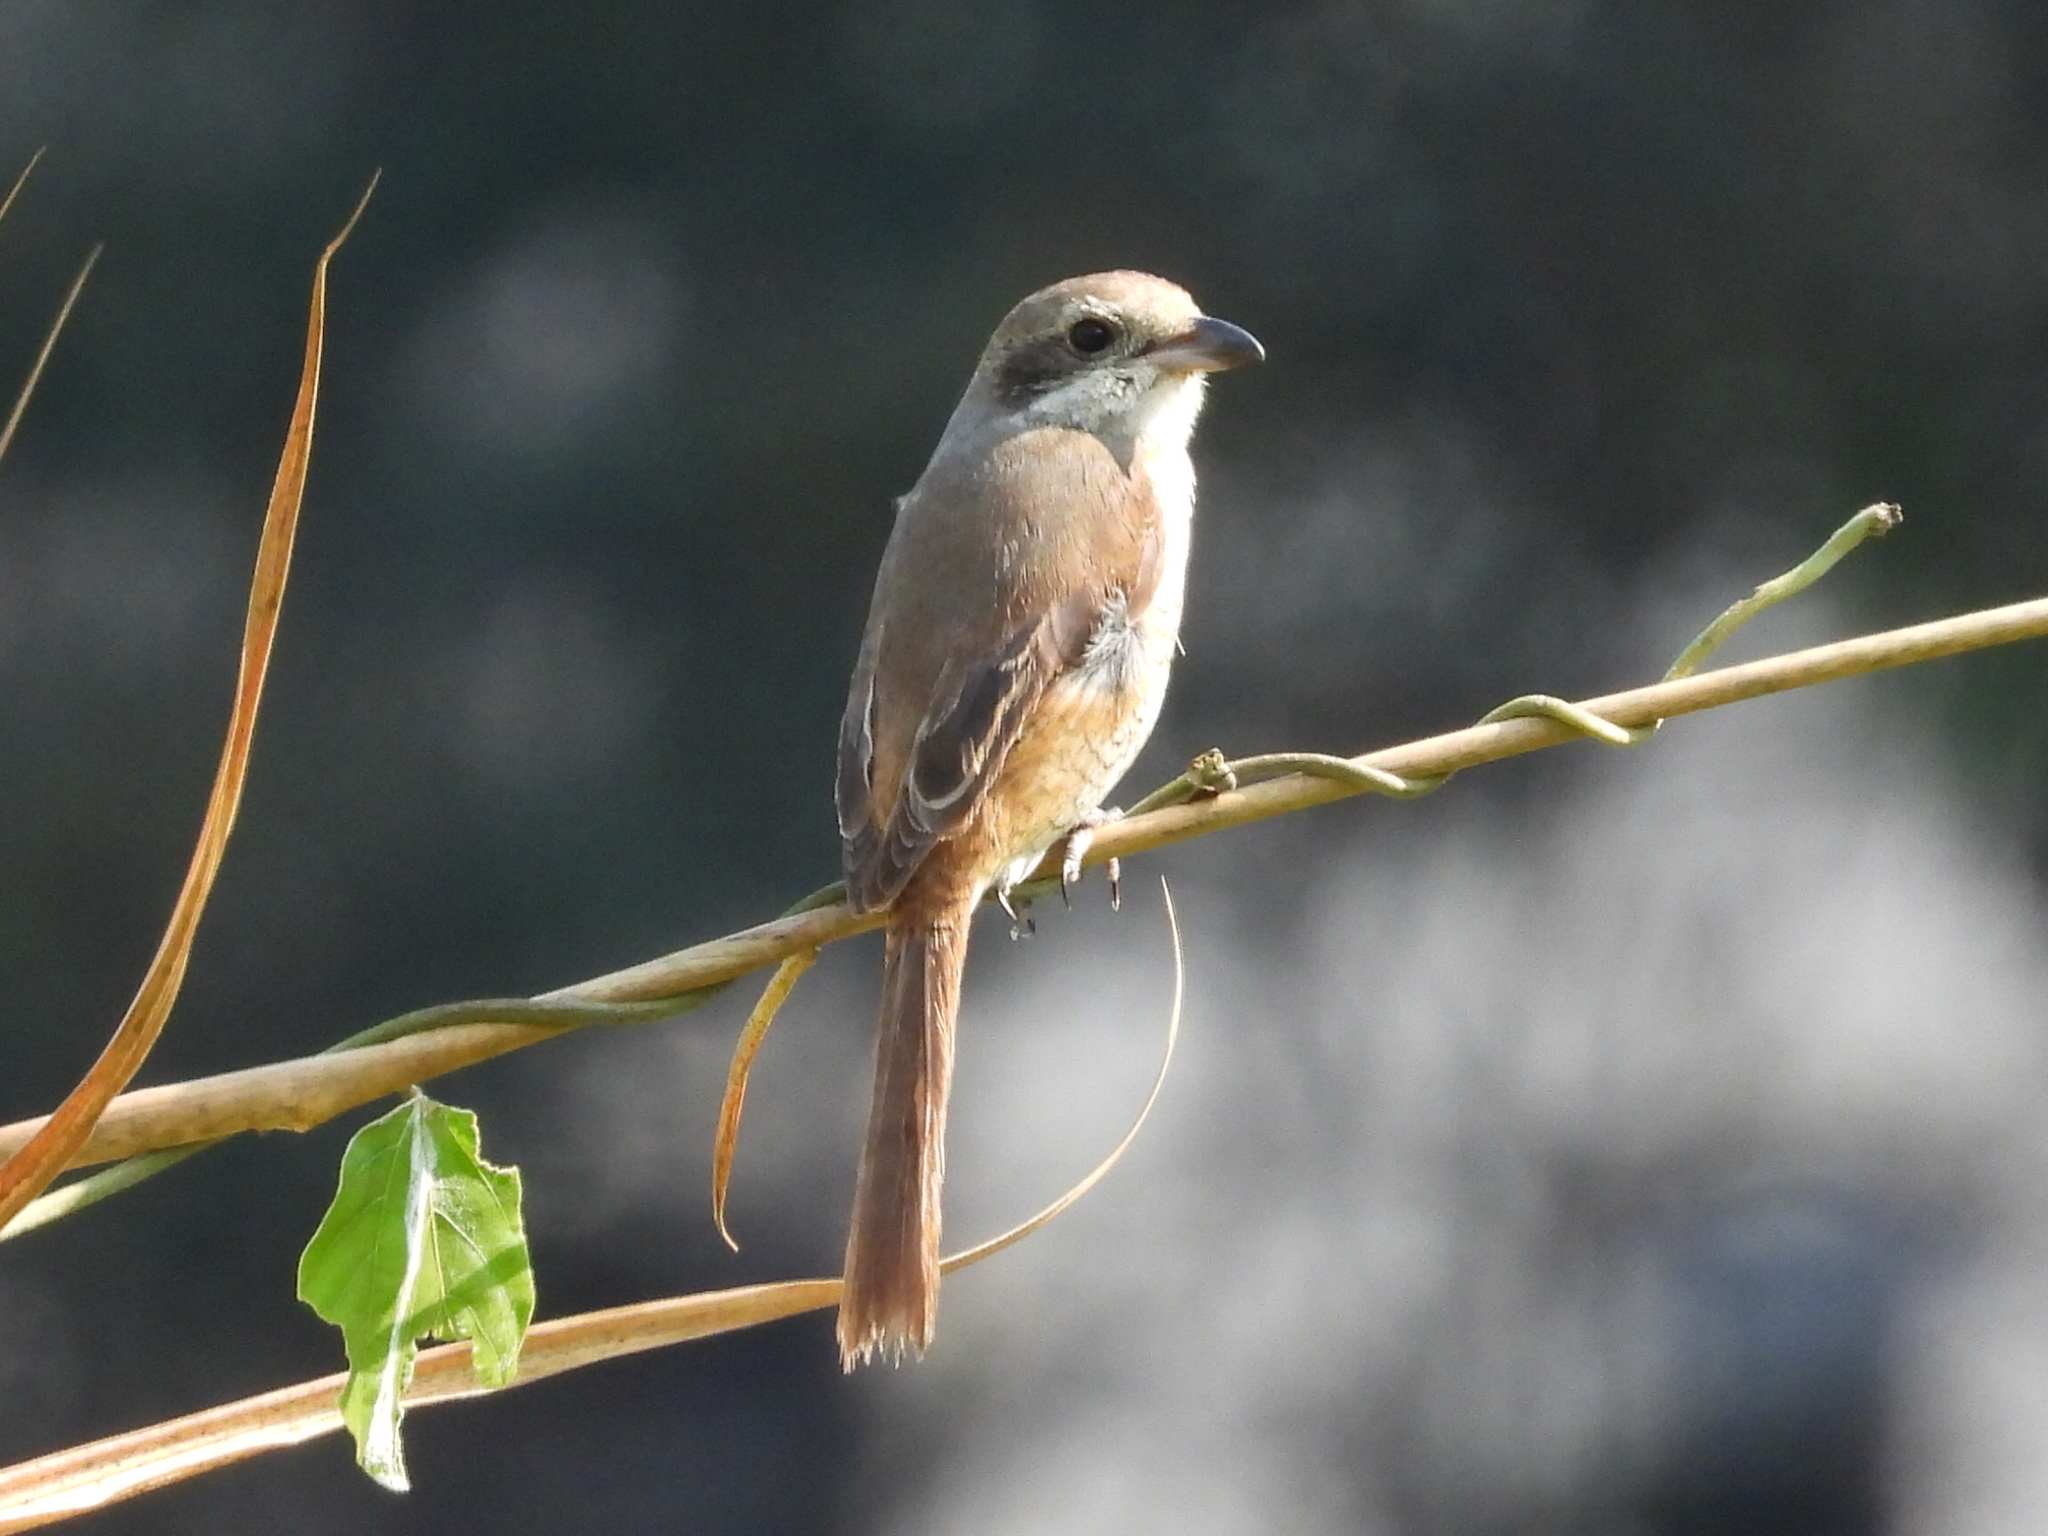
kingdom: Animalia
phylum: Chordata
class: Aves
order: Passeriformes
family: Laniidae
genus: Lanius
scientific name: Lanius tephronotus
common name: Grey-backed shrike
